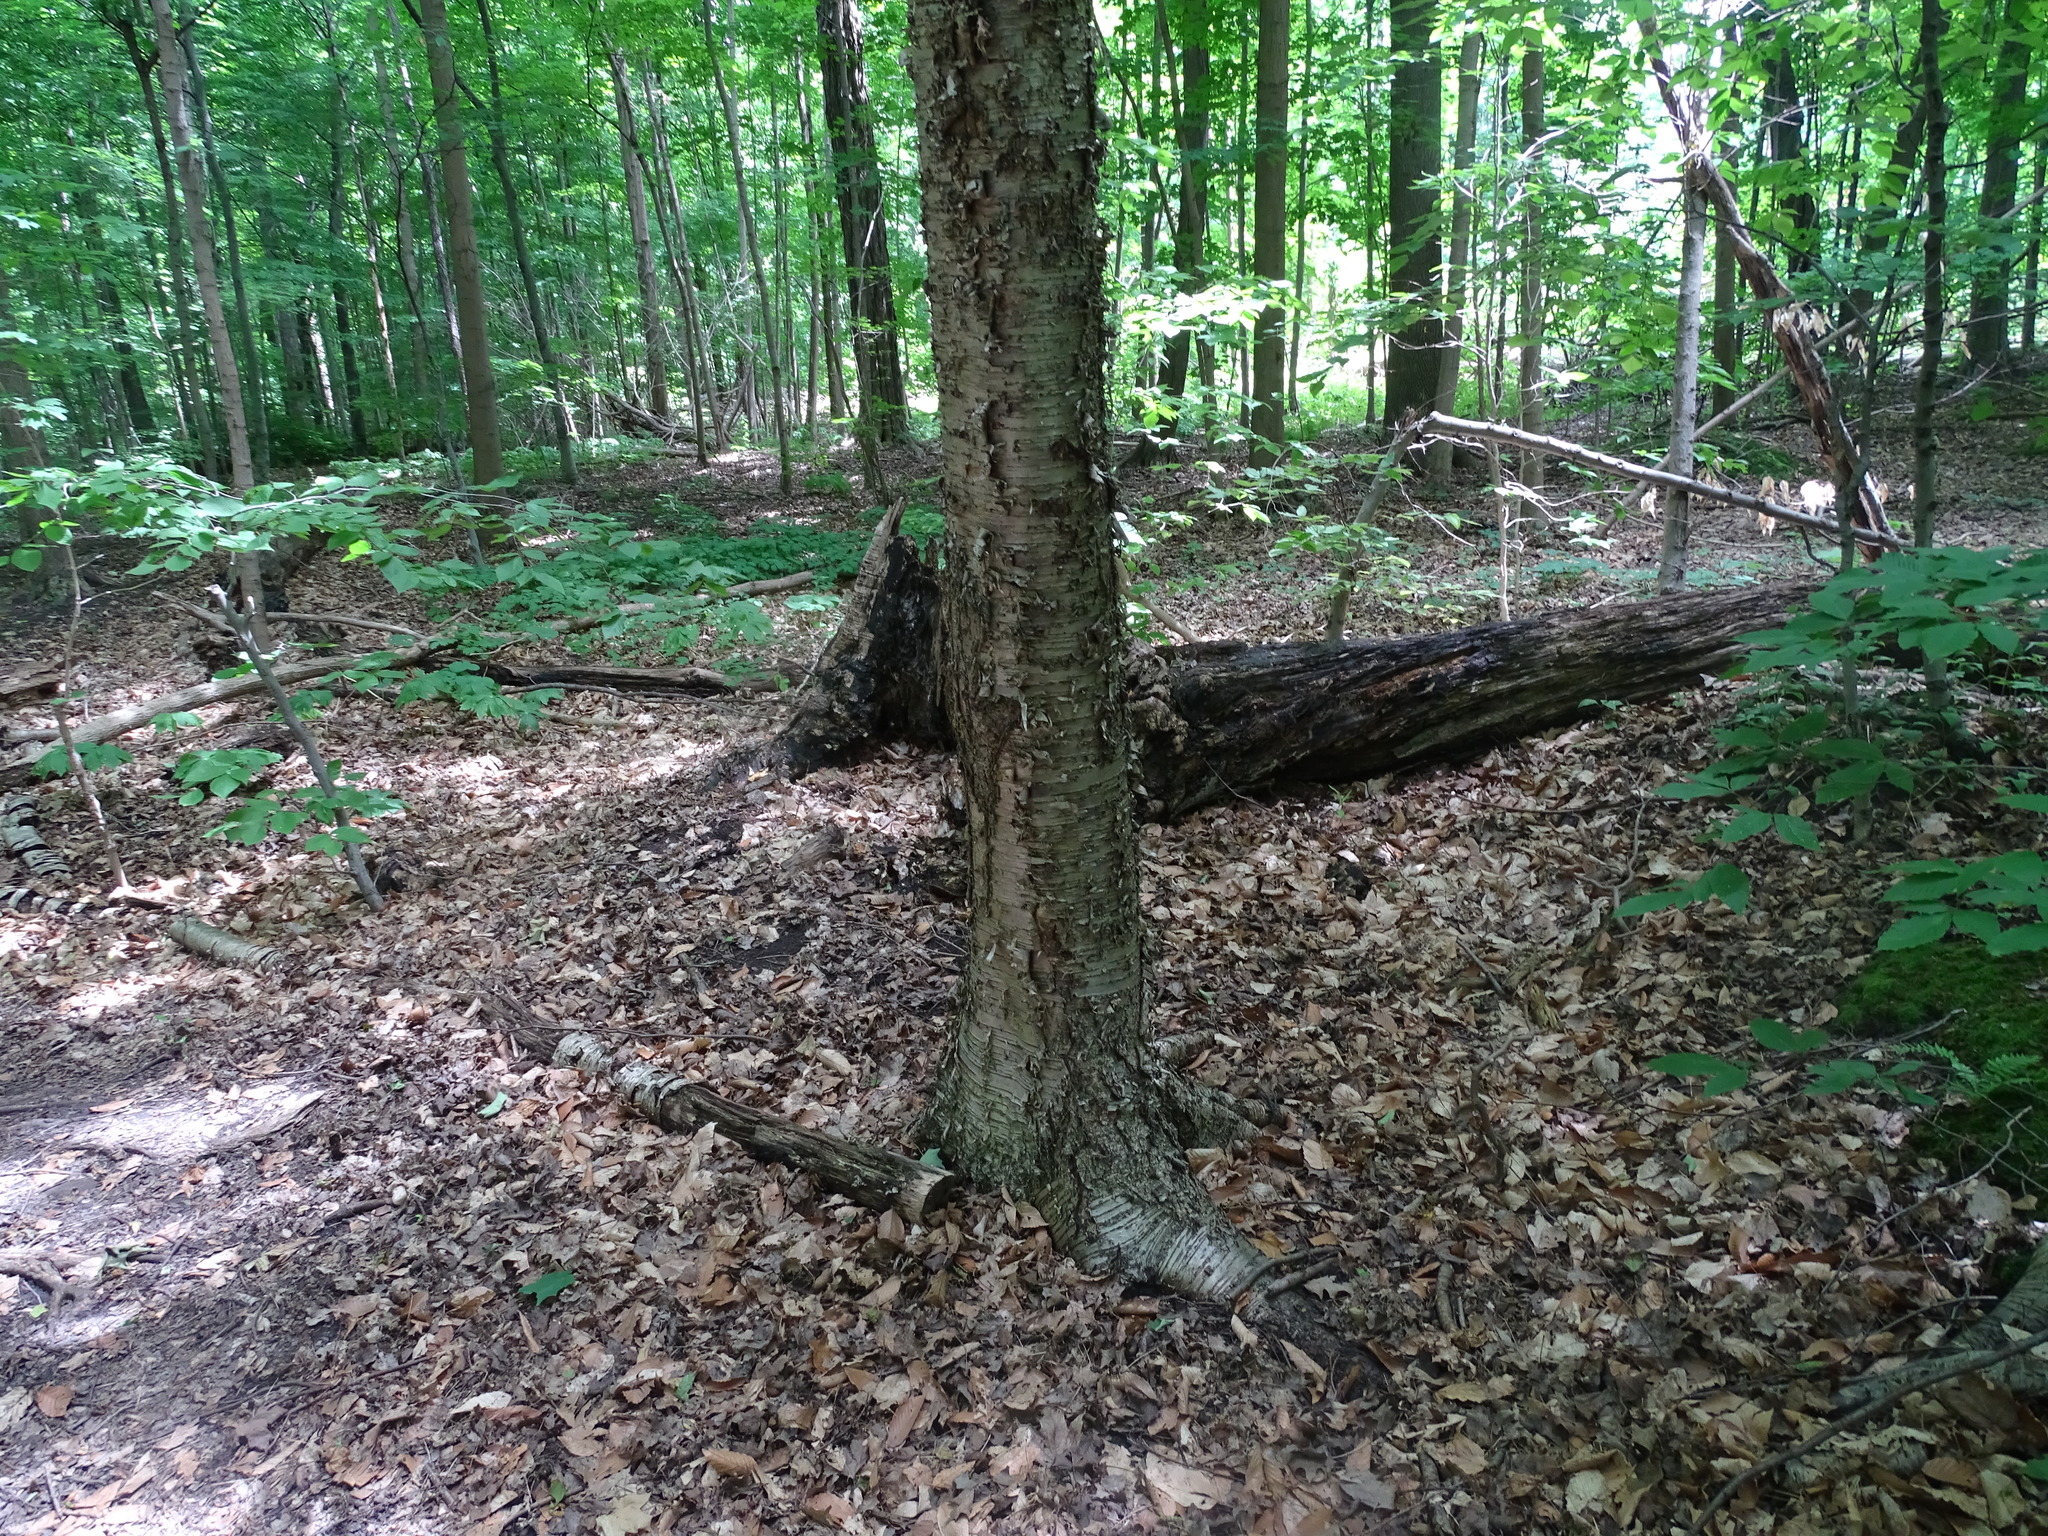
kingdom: Plantae
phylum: Tracheophyta
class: Magnoliopsida
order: Fagales
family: Betulaceae
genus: Betula
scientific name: Betula alleghaniensis
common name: Yellow birch
